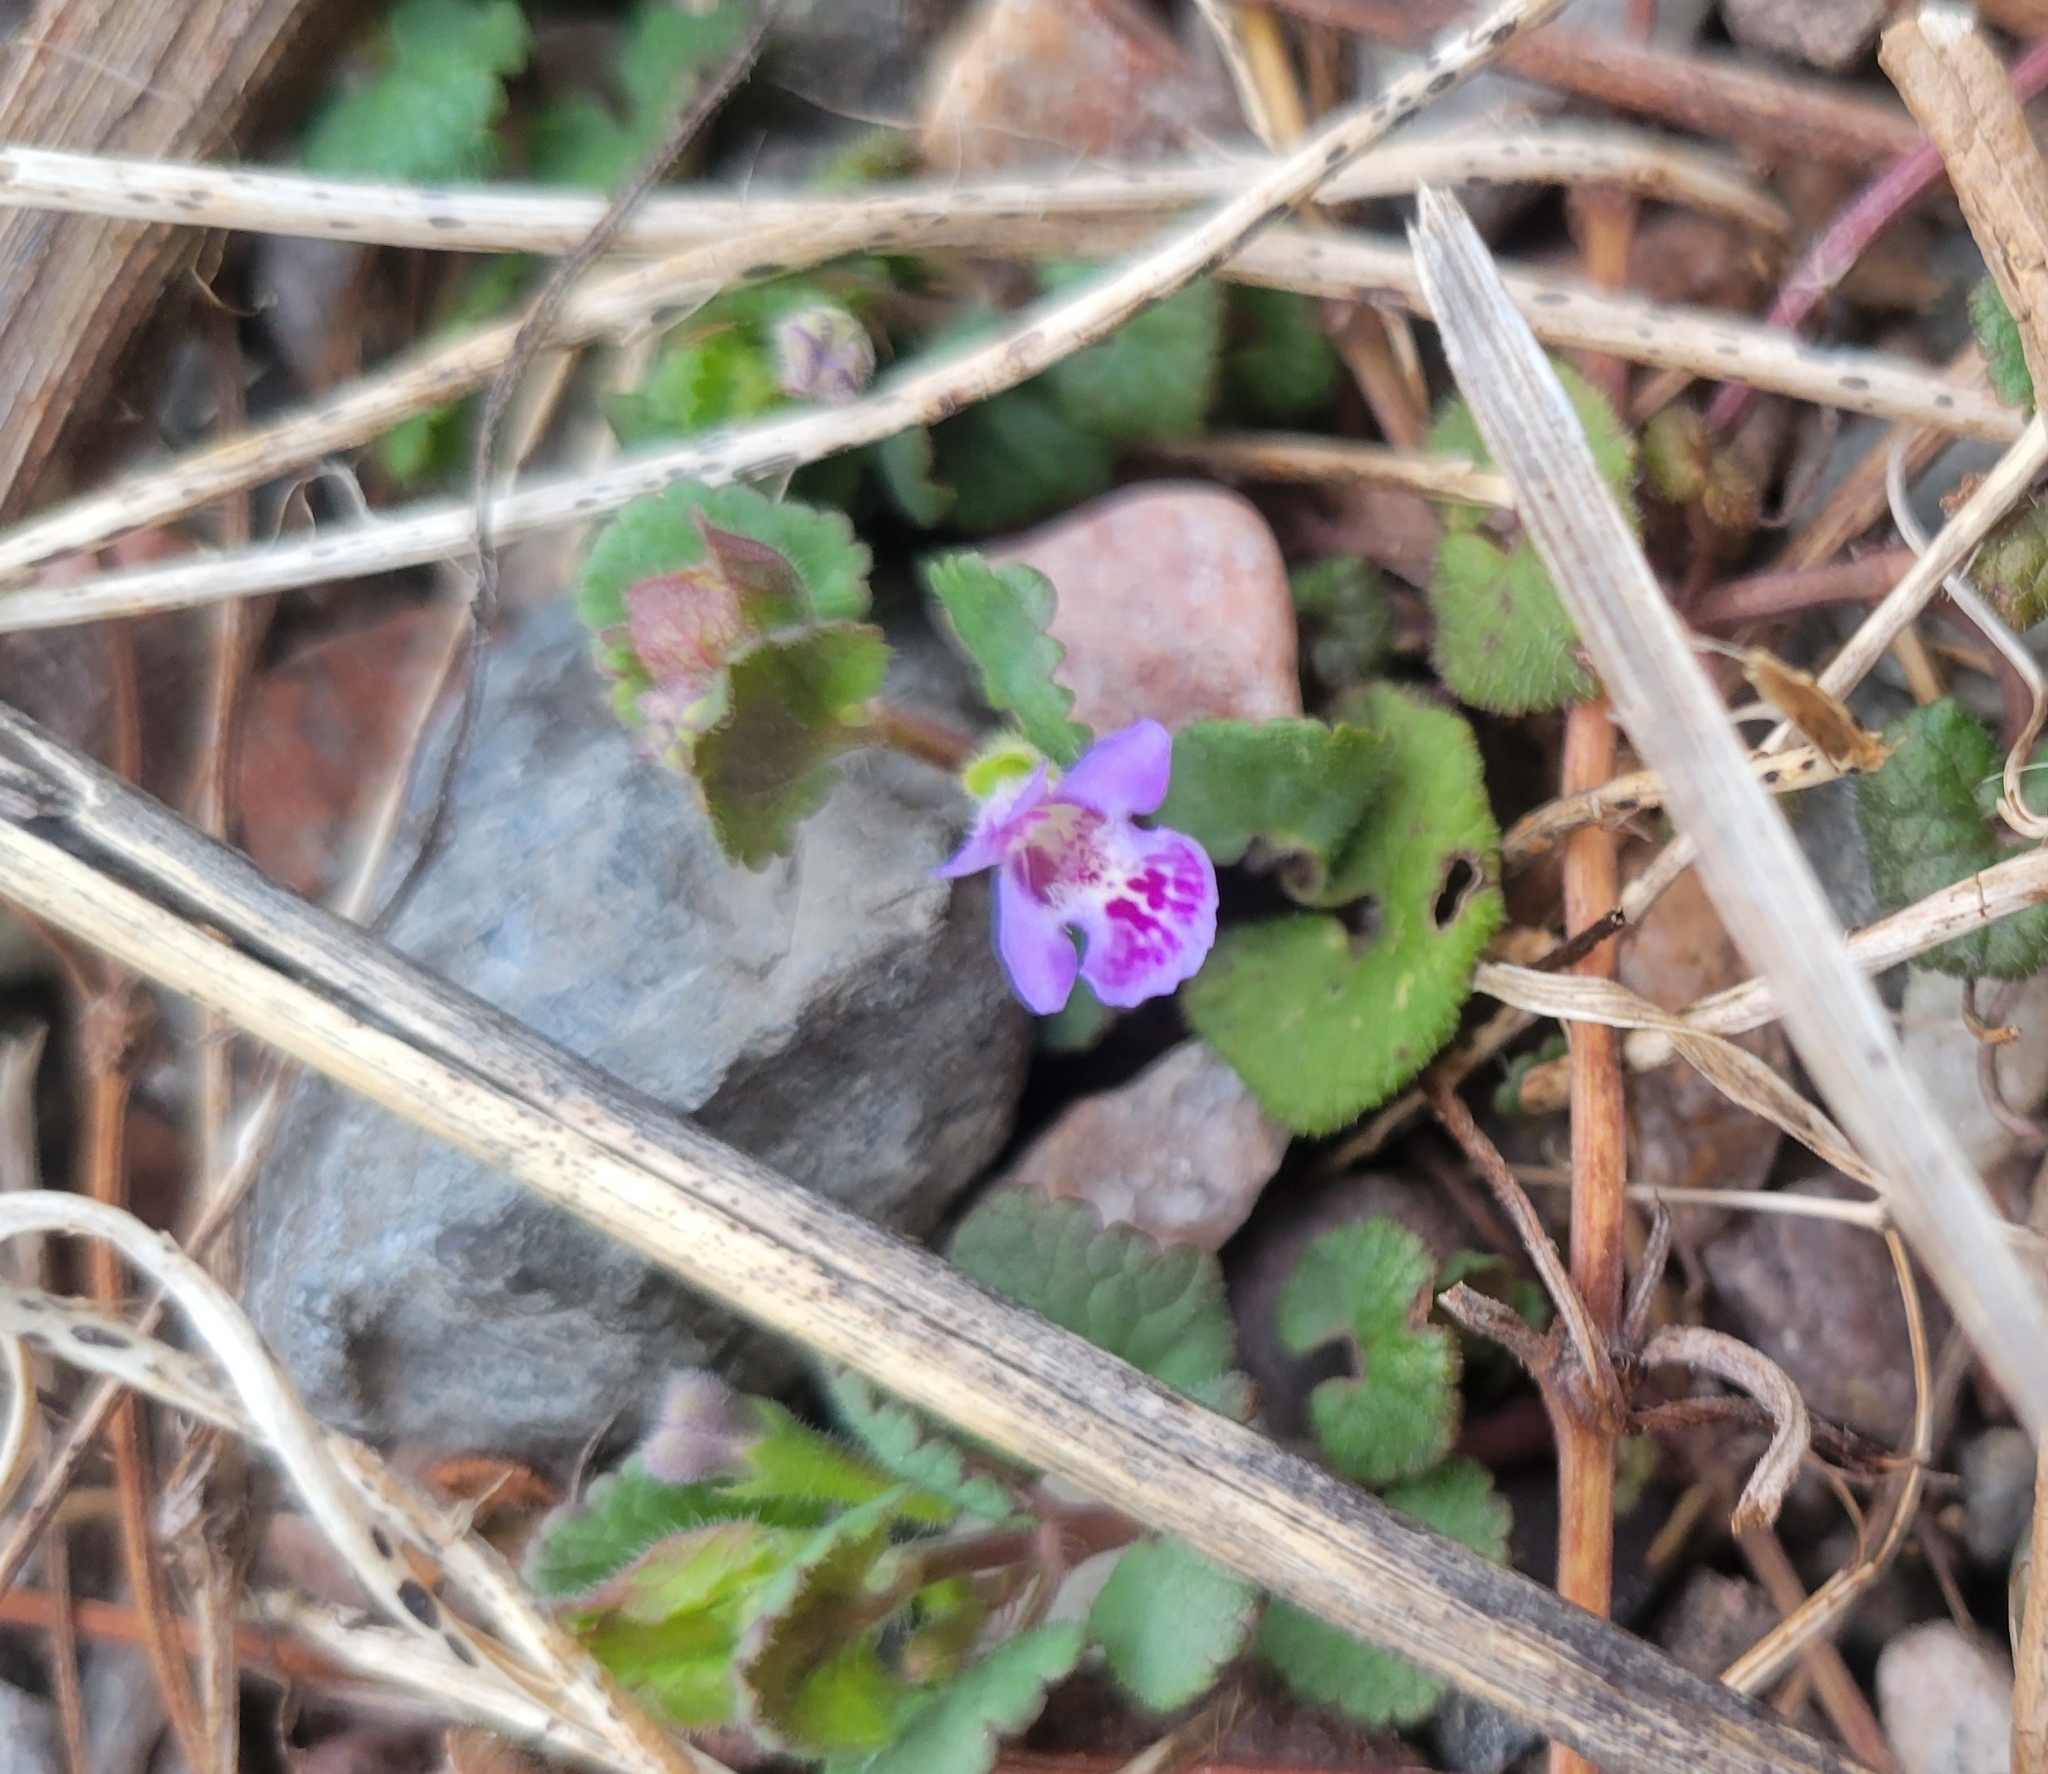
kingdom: Plantae
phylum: Tracheophyta
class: Magnoliopsida
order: Lamiales
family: Lamiaceae
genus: Glechoma
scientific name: Glechoma hederacea
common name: Ground ivy
